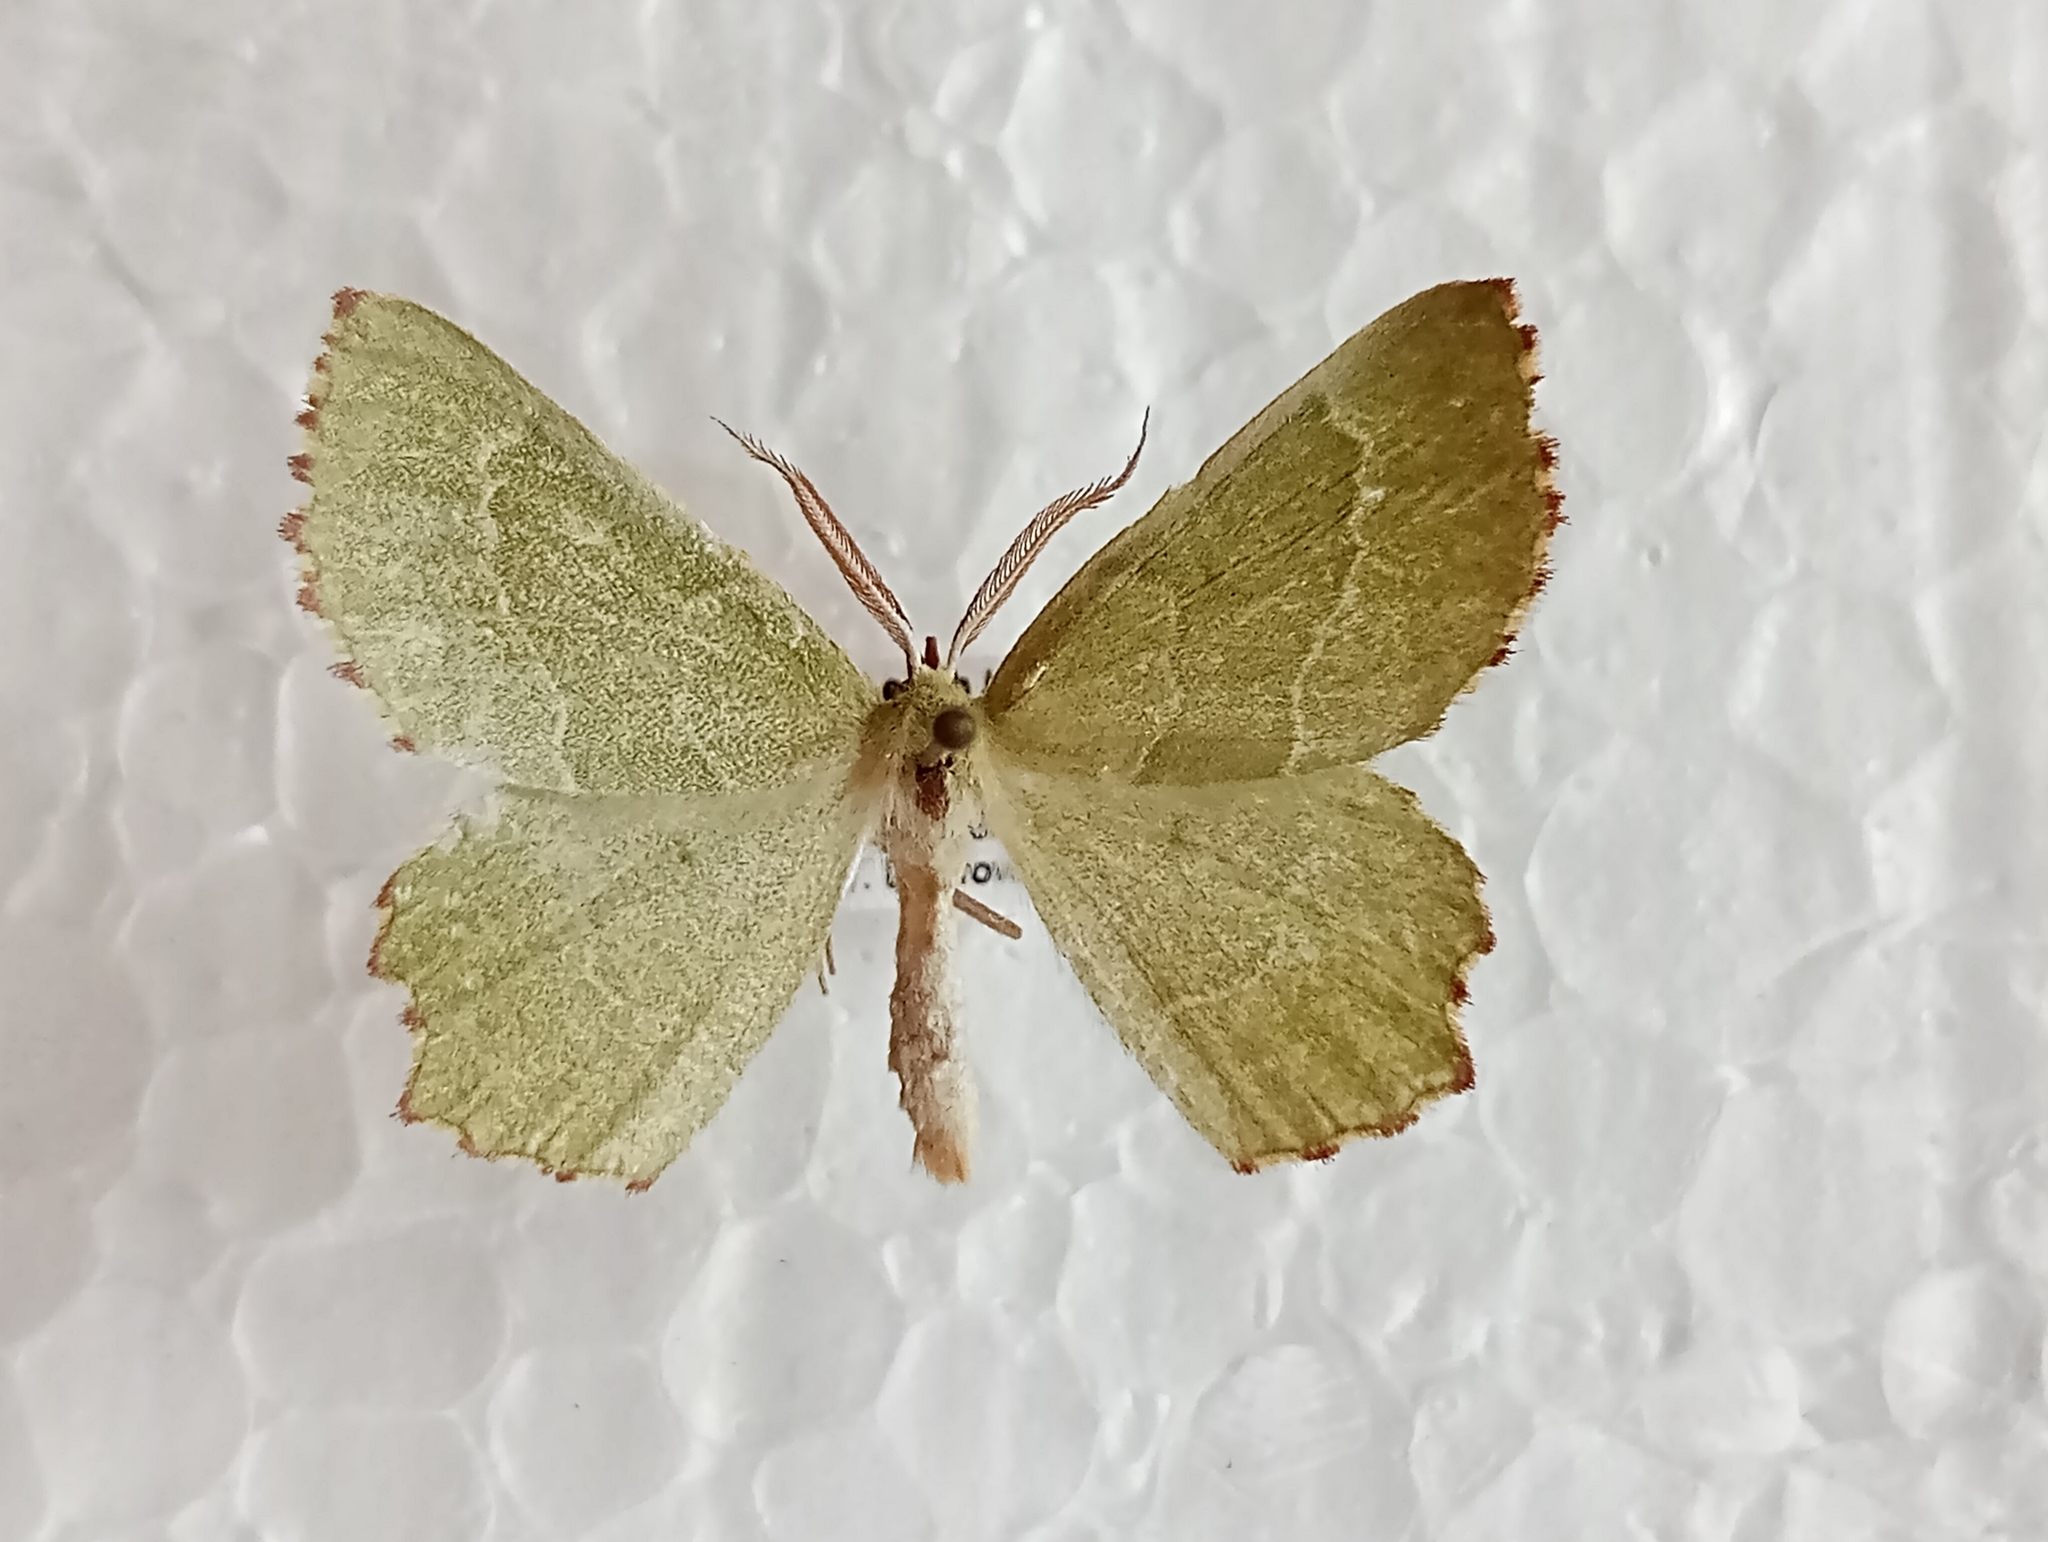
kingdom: Animalia
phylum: Arthropoda
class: Insecta
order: Lepidoptera
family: Geometridae
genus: Thalera
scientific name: Thalera fimbrialis
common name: Sussex emerald
